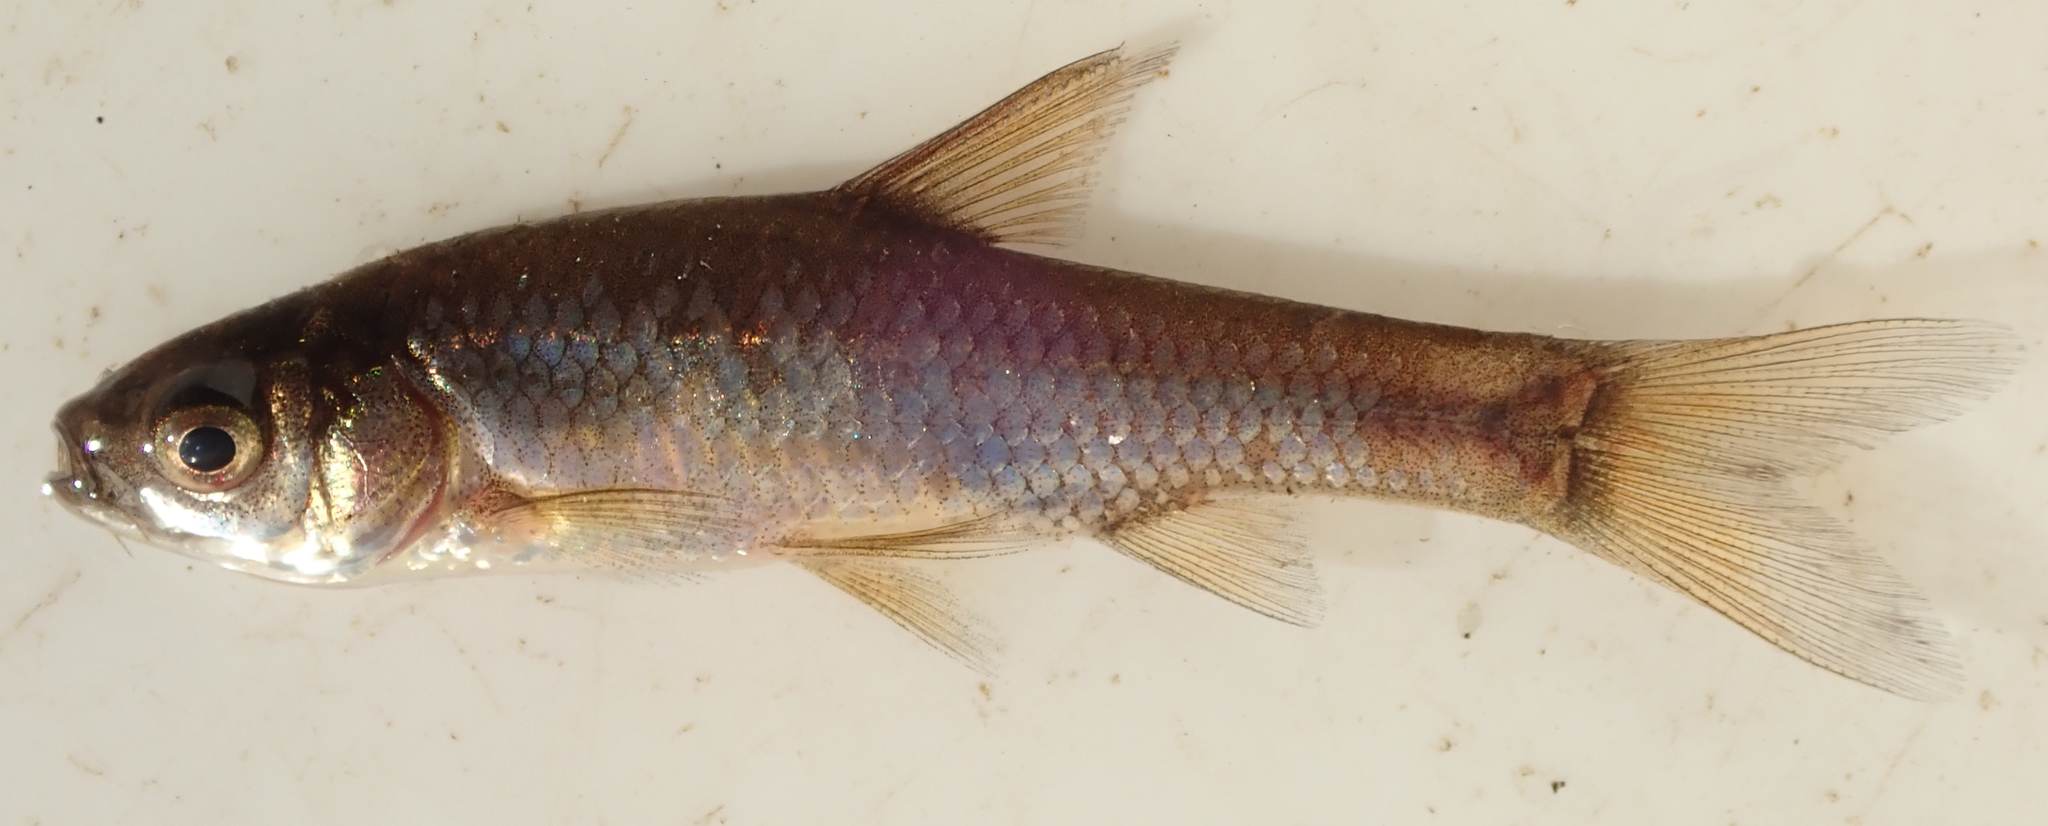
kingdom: Animalia
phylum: Chordata
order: Cypriniformes
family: Cyprinidae
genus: Enteromius
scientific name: Enteromius paludinosus
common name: Straightfin barb
